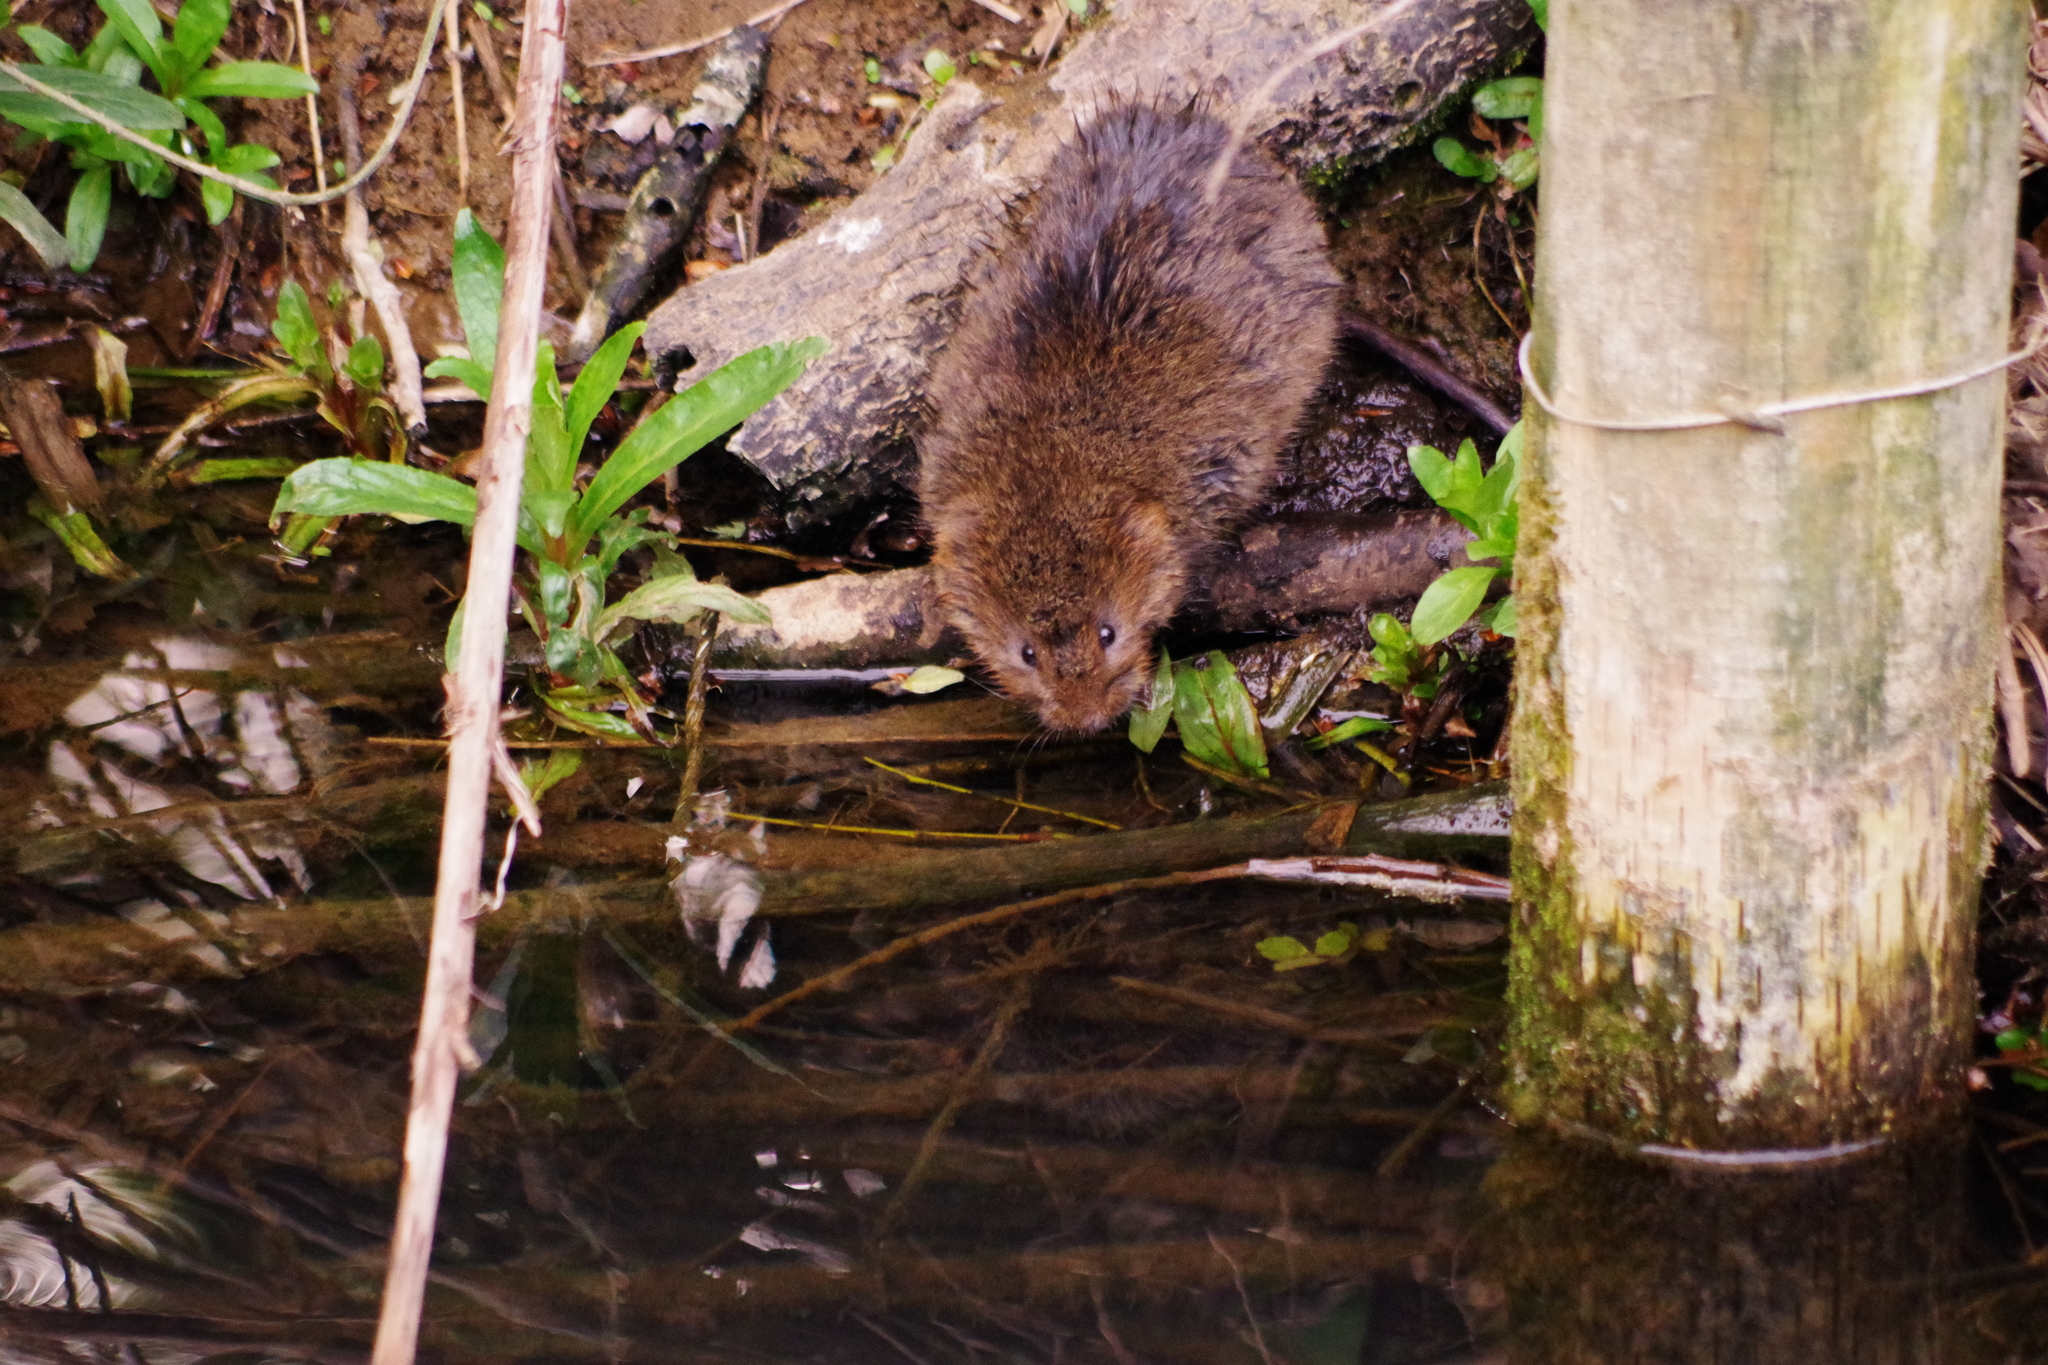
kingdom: Animalia
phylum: Chordata
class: Mammalia
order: Rodentia
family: Cricetidae
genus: Arvicola
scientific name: Arvicola amphibius
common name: European water vole
